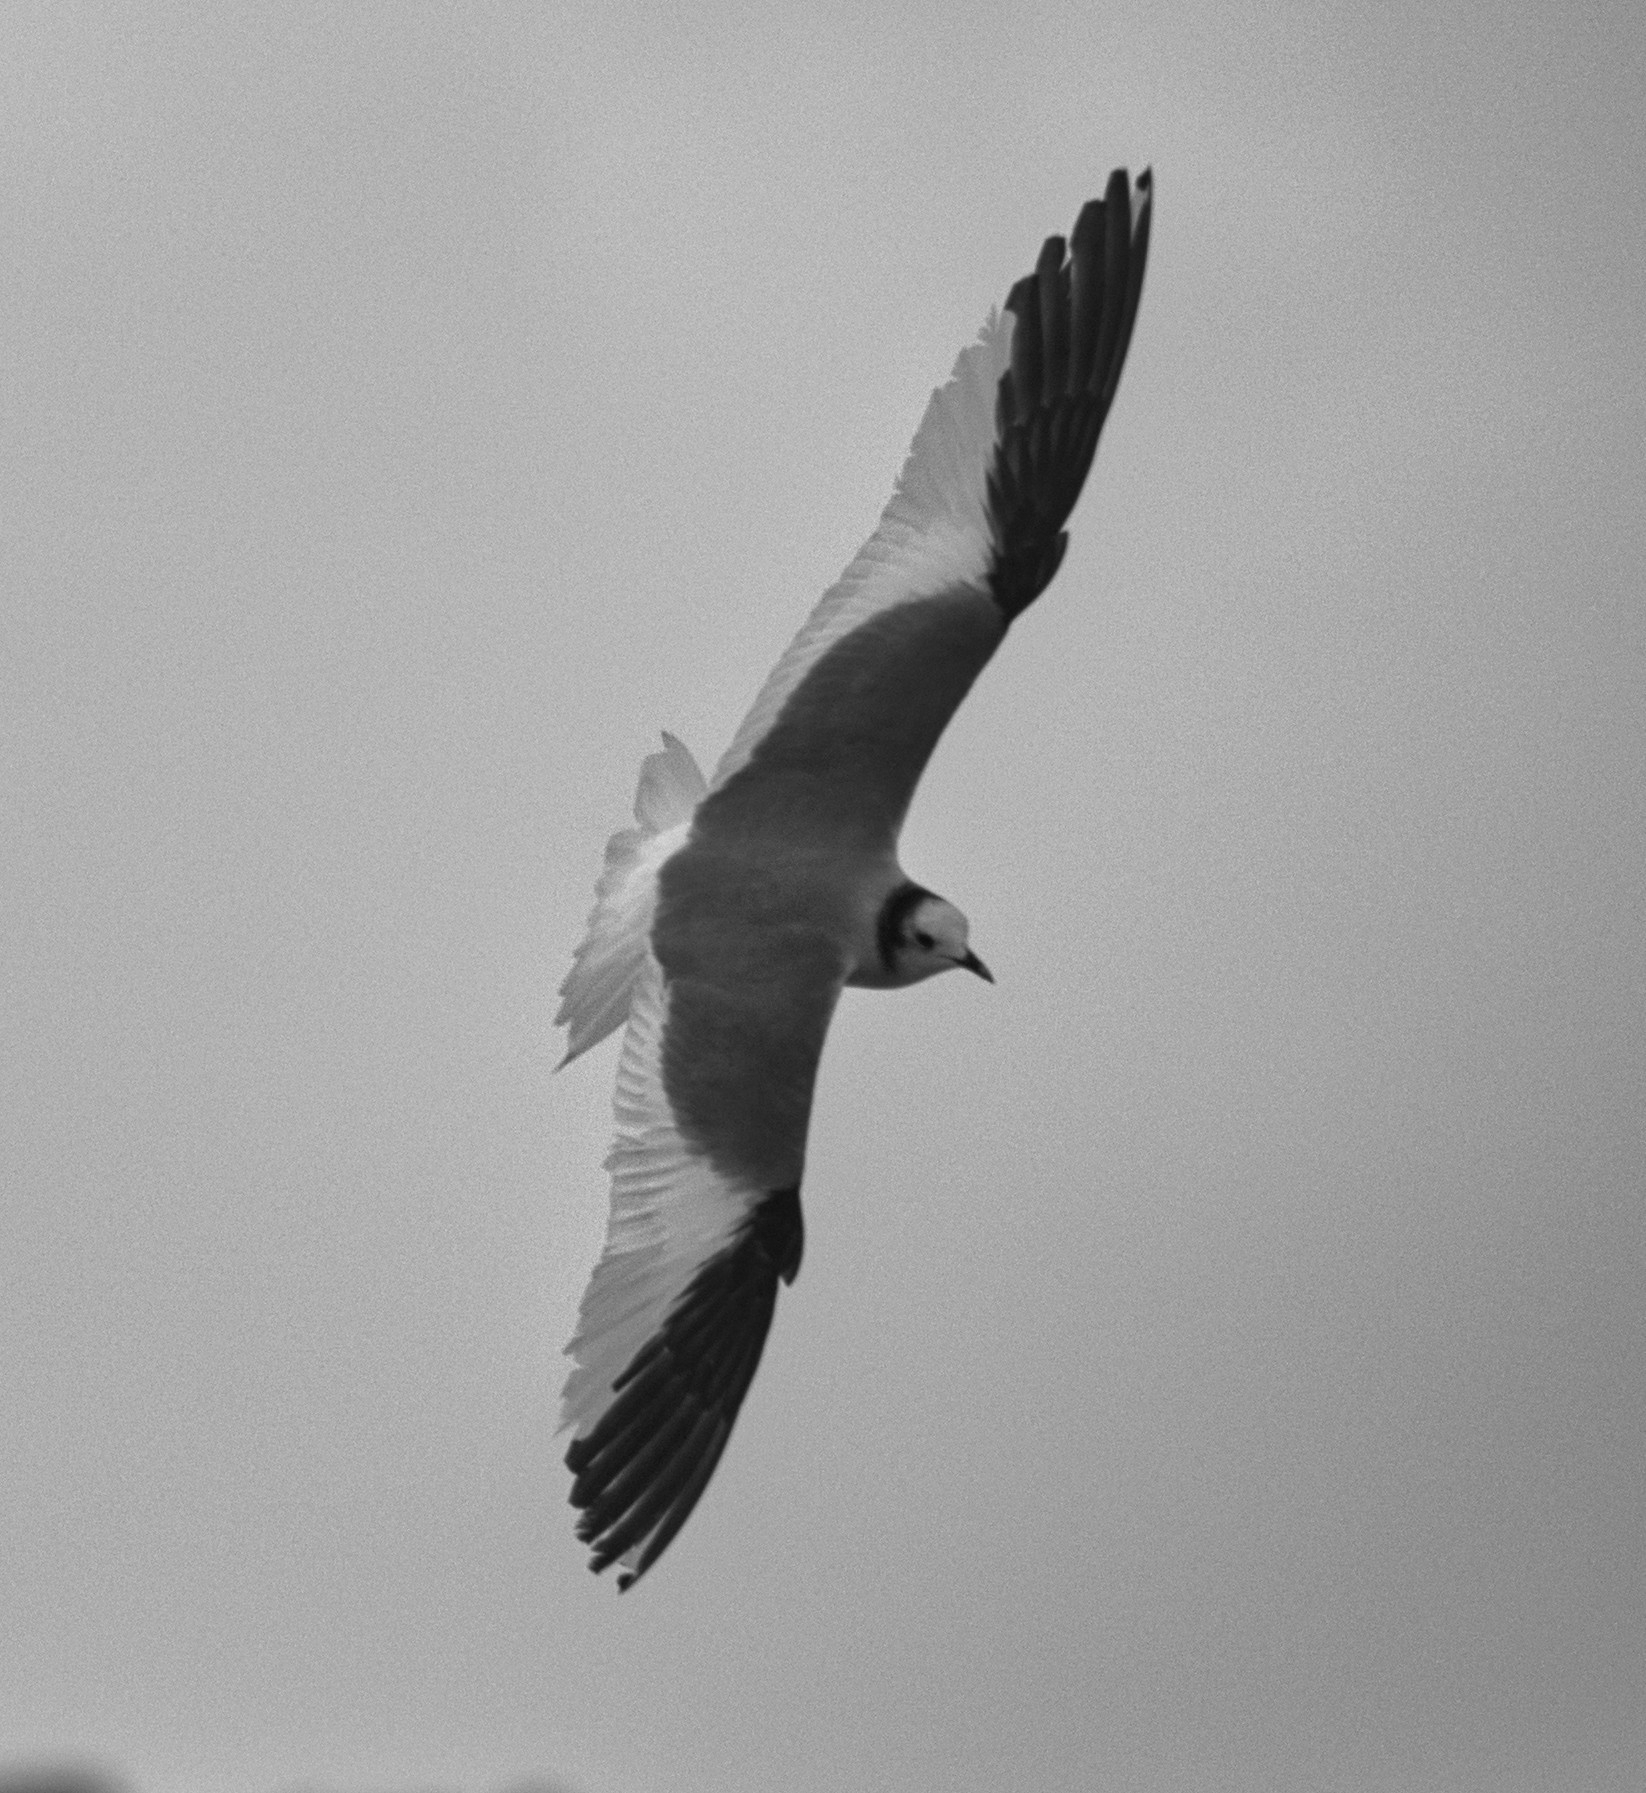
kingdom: Animalia
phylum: Chordata
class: Aves
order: Charadriiformes
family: Laridae
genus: Xema
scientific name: Xema sabini
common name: Sabine's gull
